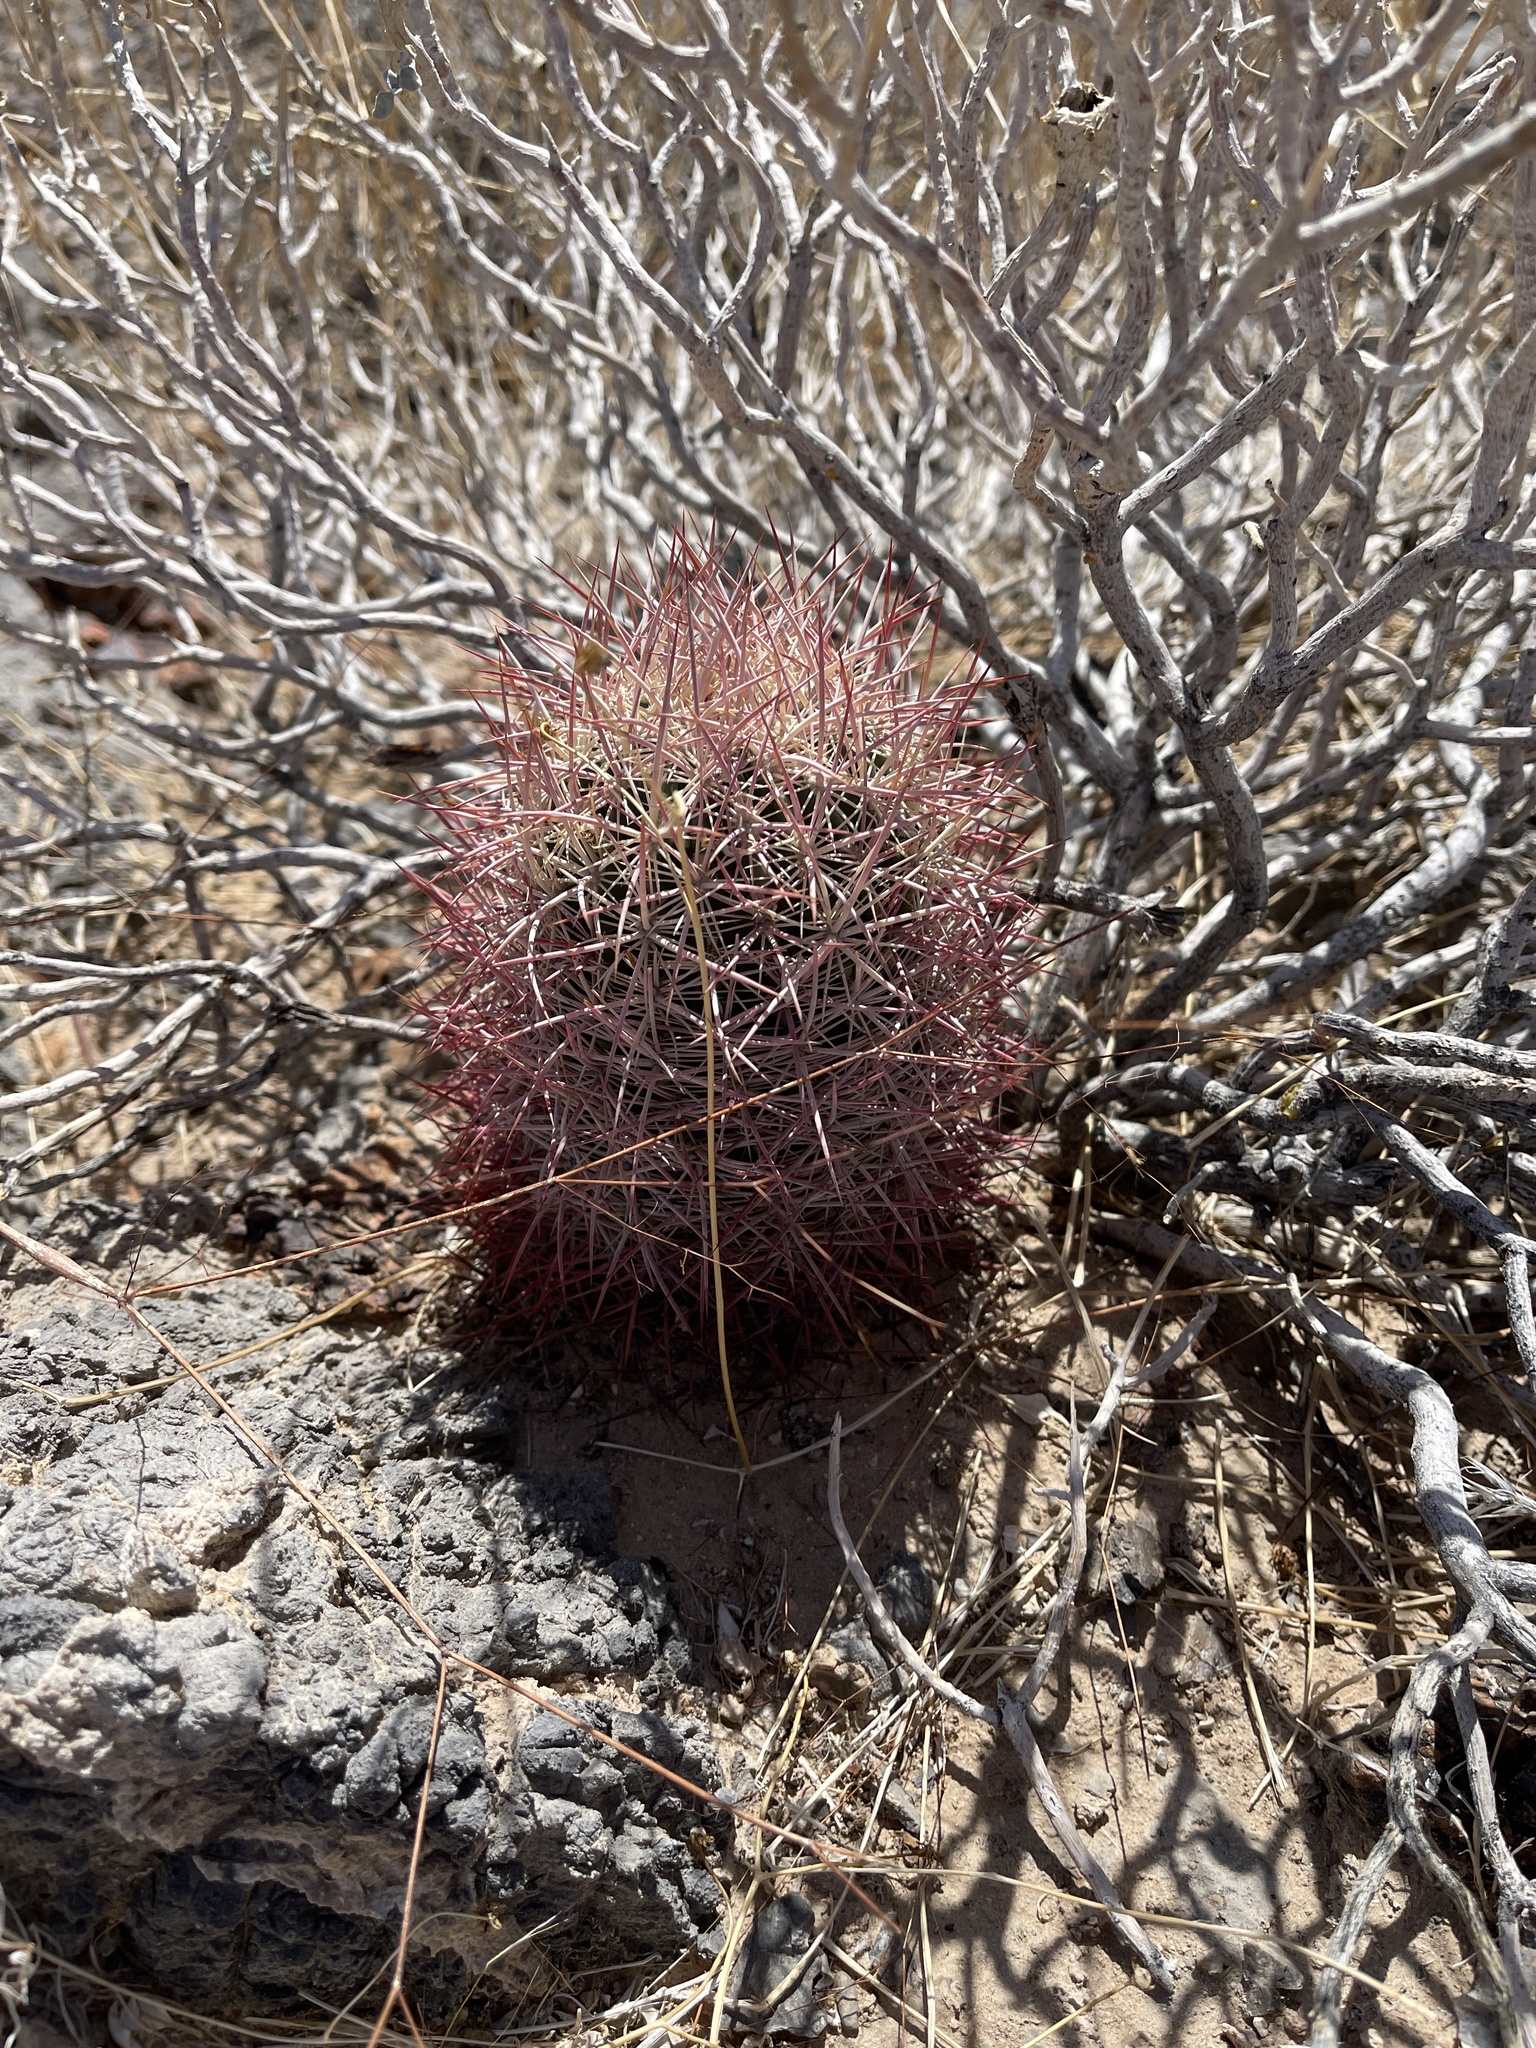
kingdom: Plantae
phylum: Tracheophyta
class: Magnoliopsida
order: Caryophyllales
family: Cactaceae
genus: Sclerocactus
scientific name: Sclerocactus johnsonii
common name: Eight-spine fishhook cactus
